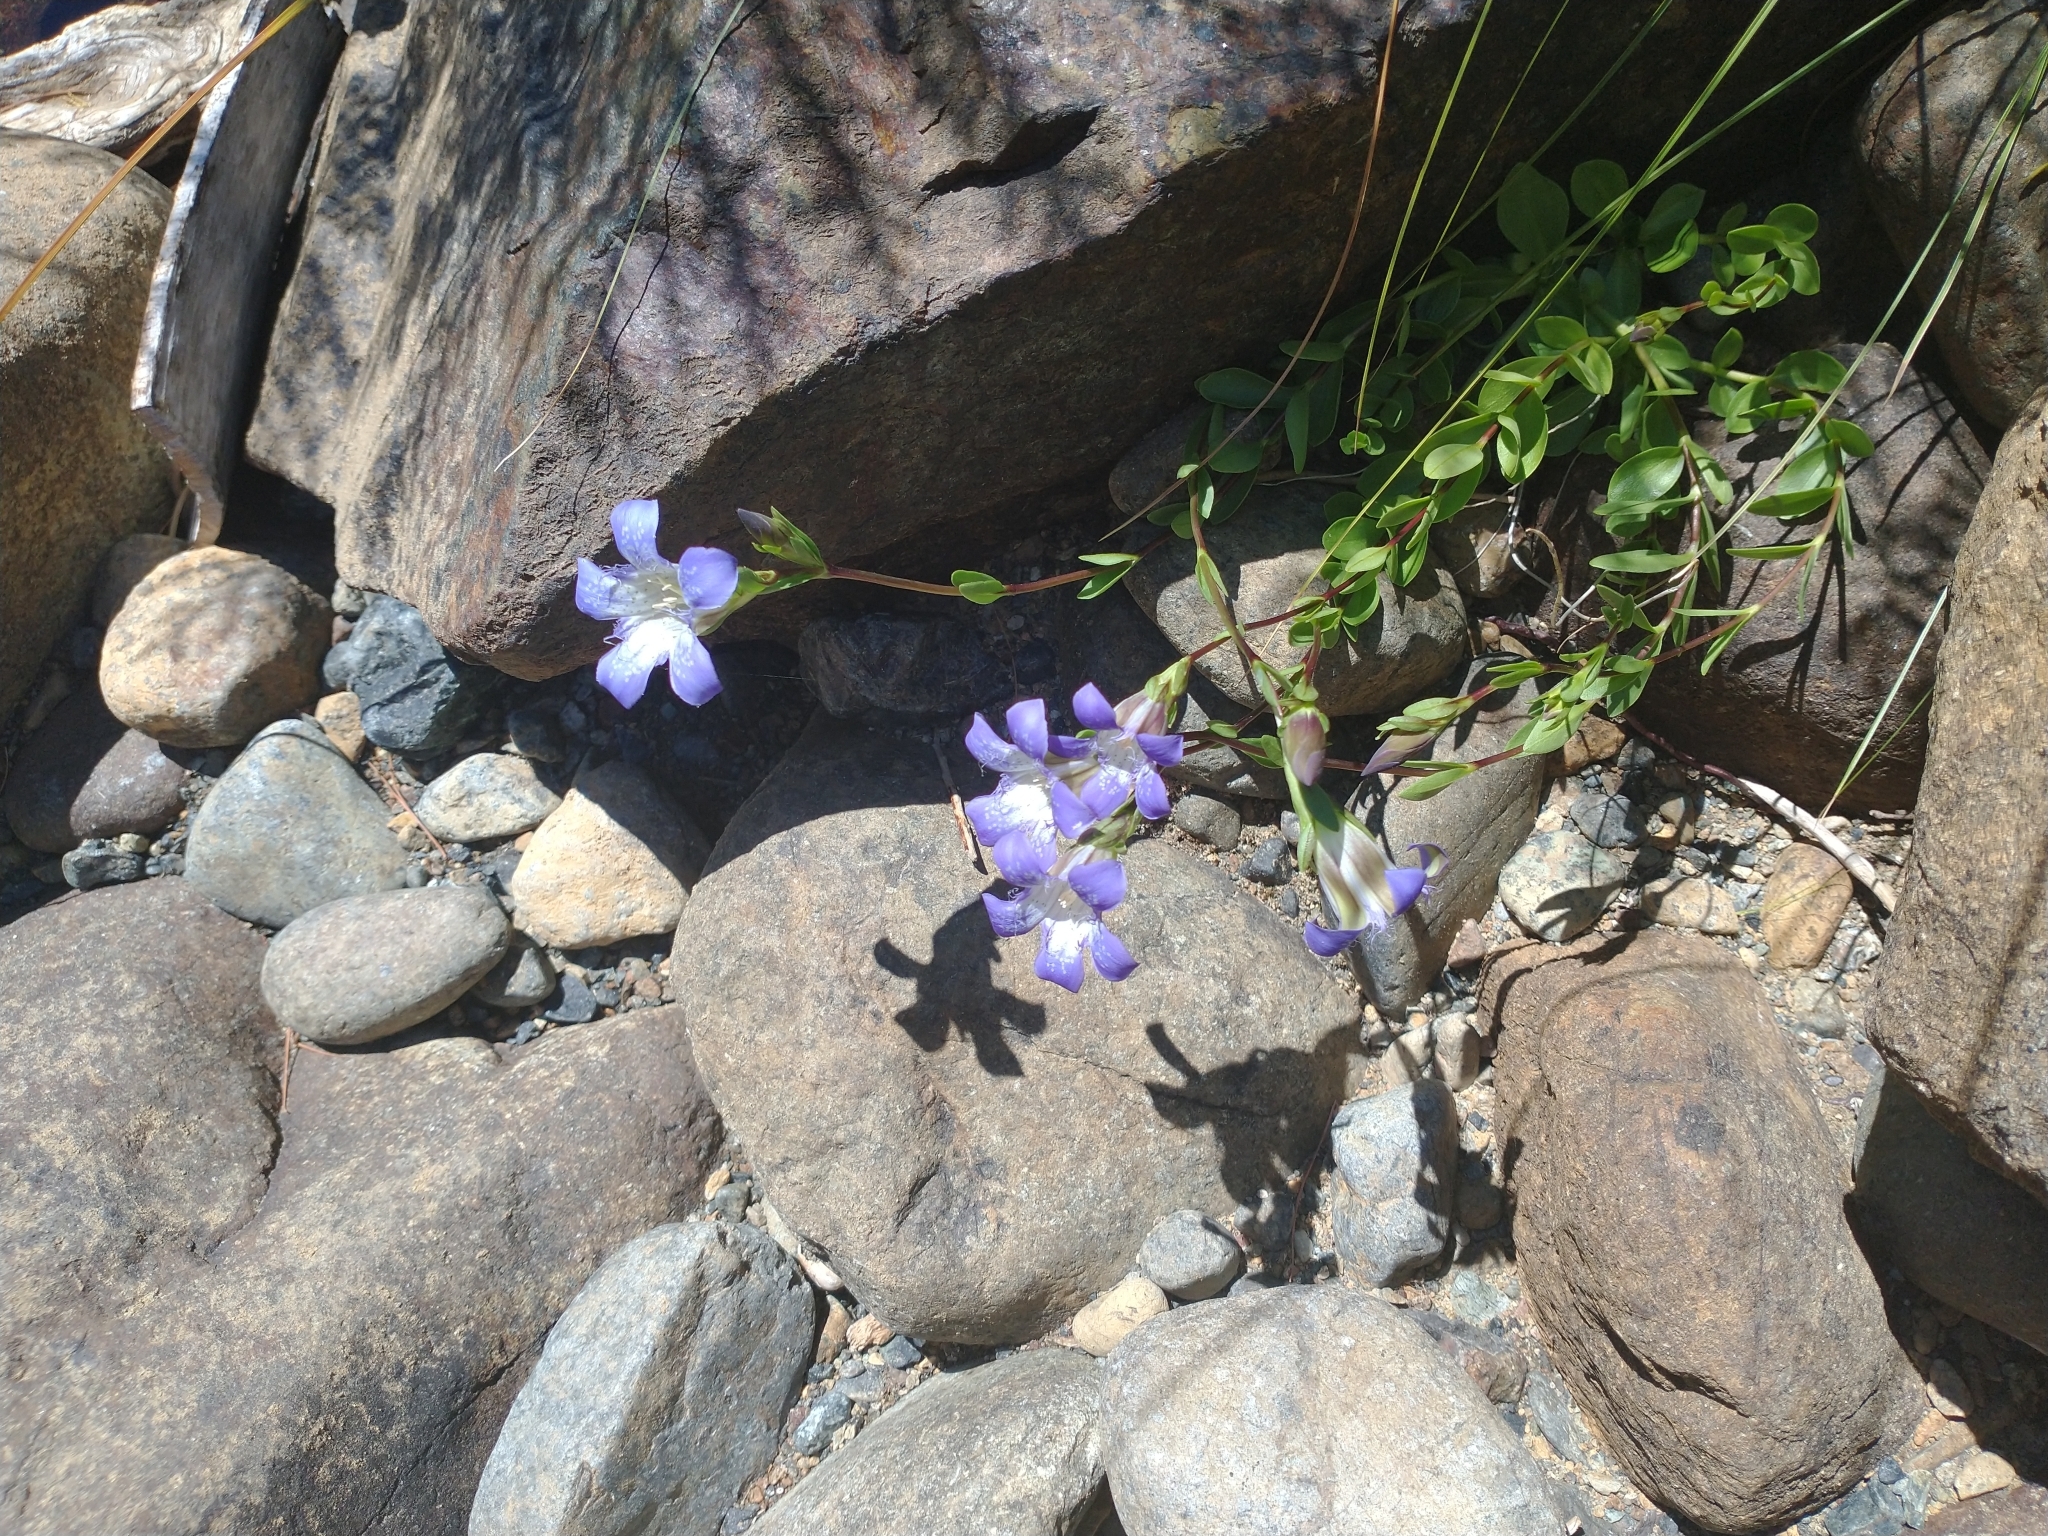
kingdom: Plantae
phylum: Tracheophyta
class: Magnoliopsida
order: Gentianales
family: Gentianaceae
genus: Gentiana
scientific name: Gentiana setigera
